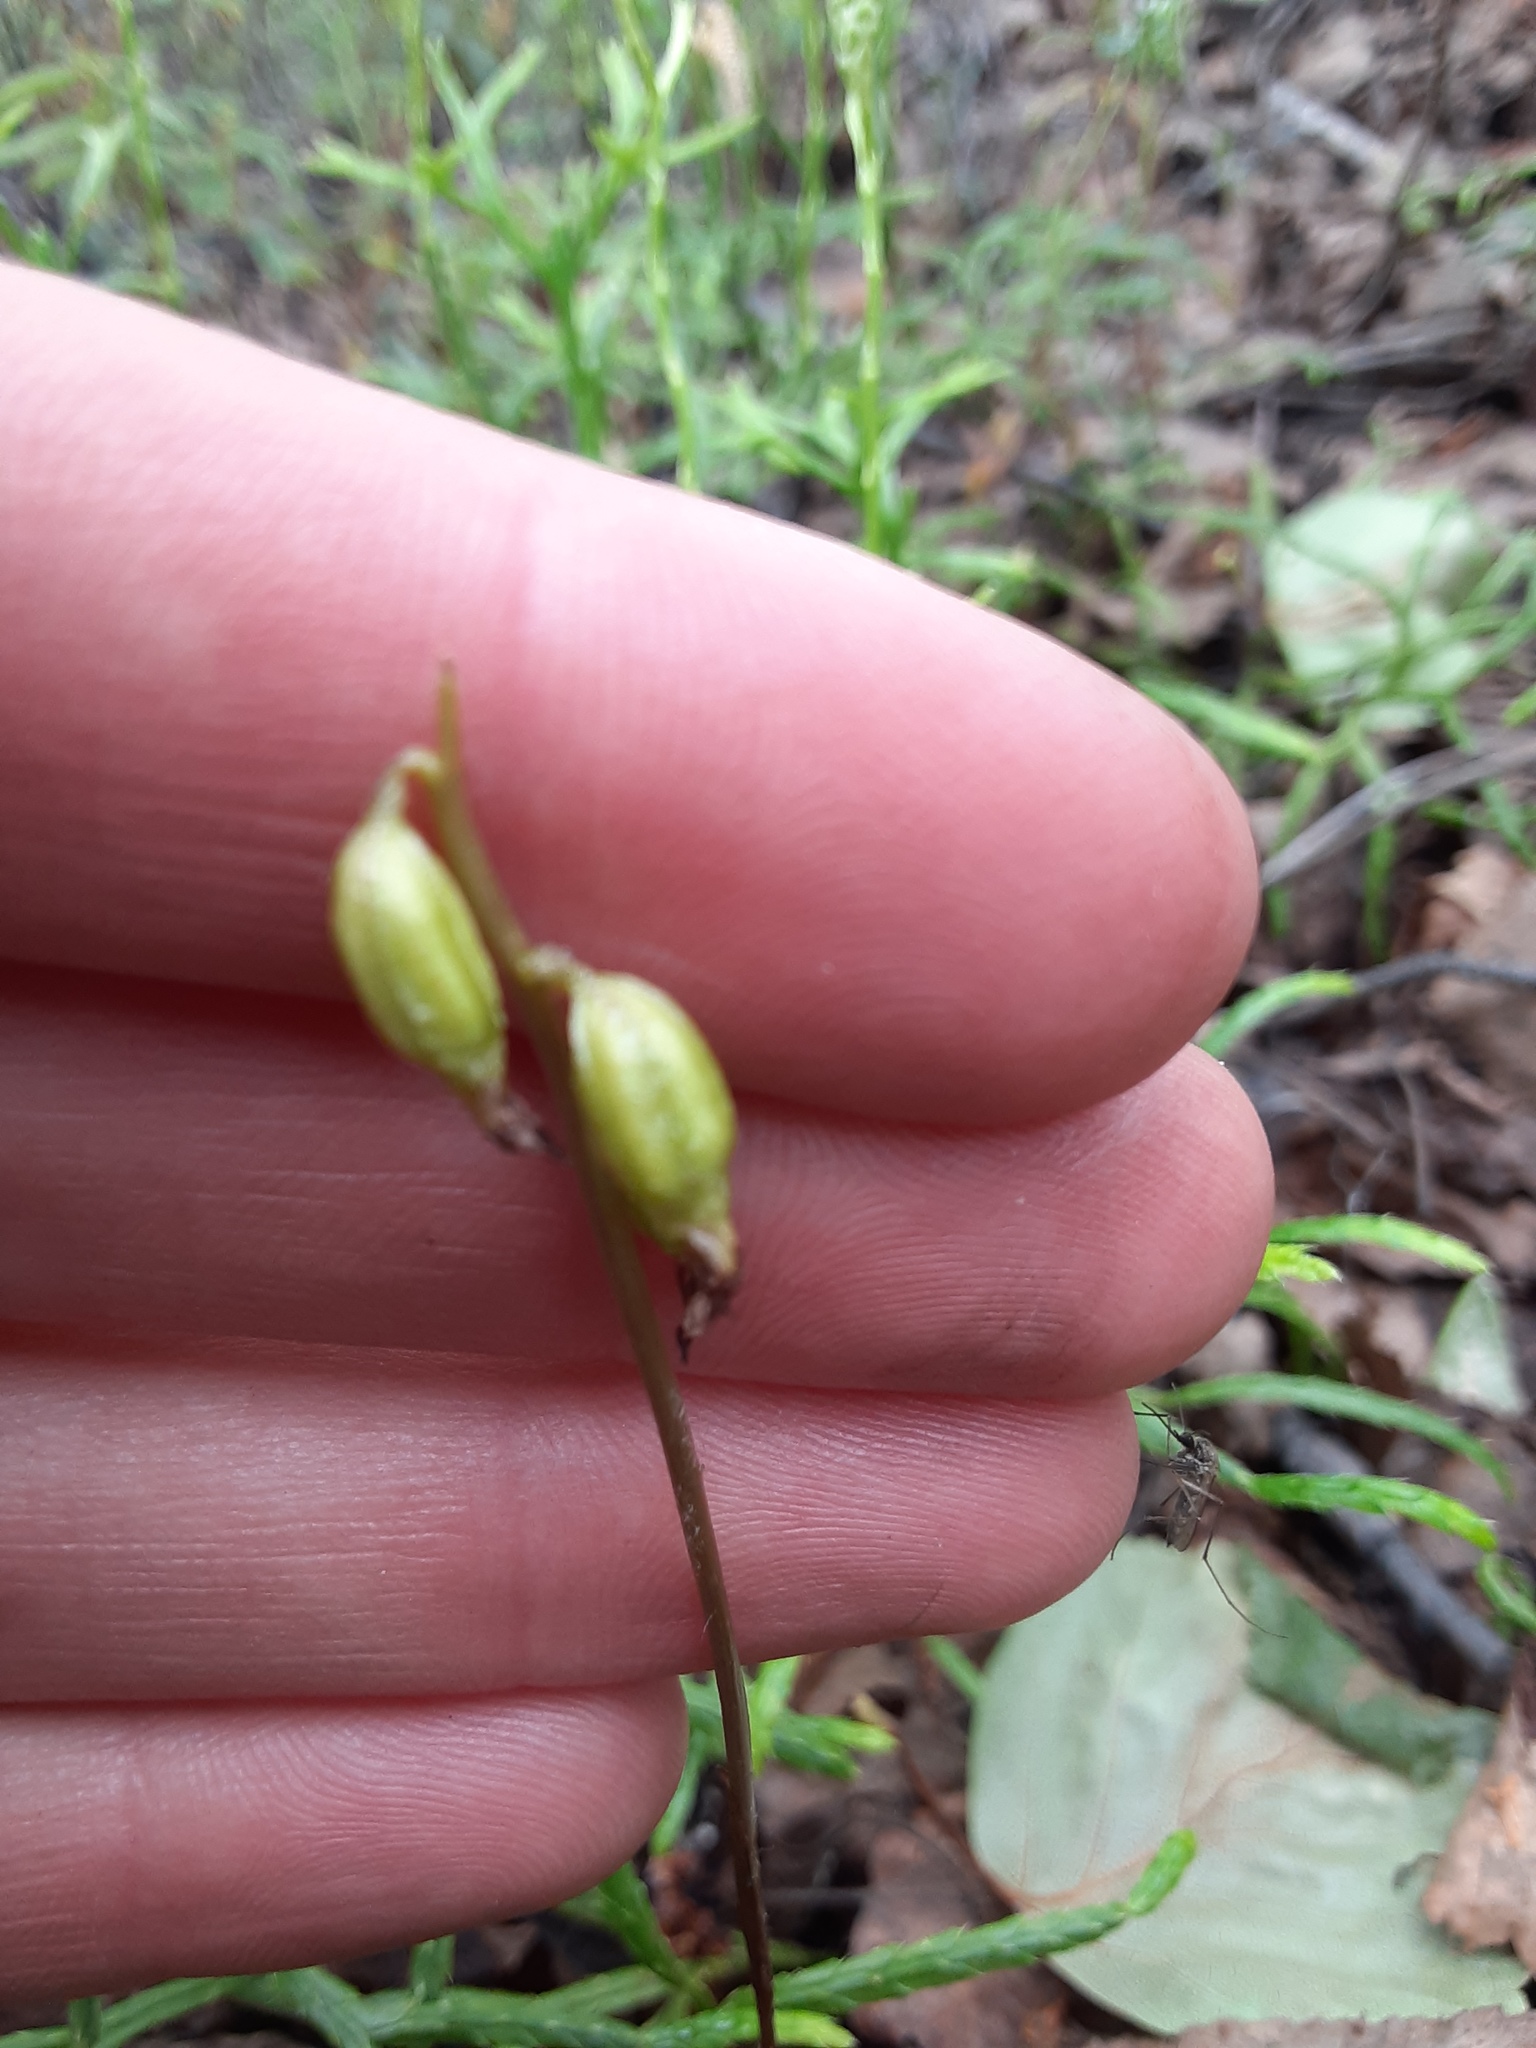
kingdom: Plantae
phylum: Tracheophyta
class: Liliopsida
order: Asparagales
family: Orchidaceae
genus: Corallorhiza
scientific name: Corallorhiza trifida
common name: Yellow coralroot
